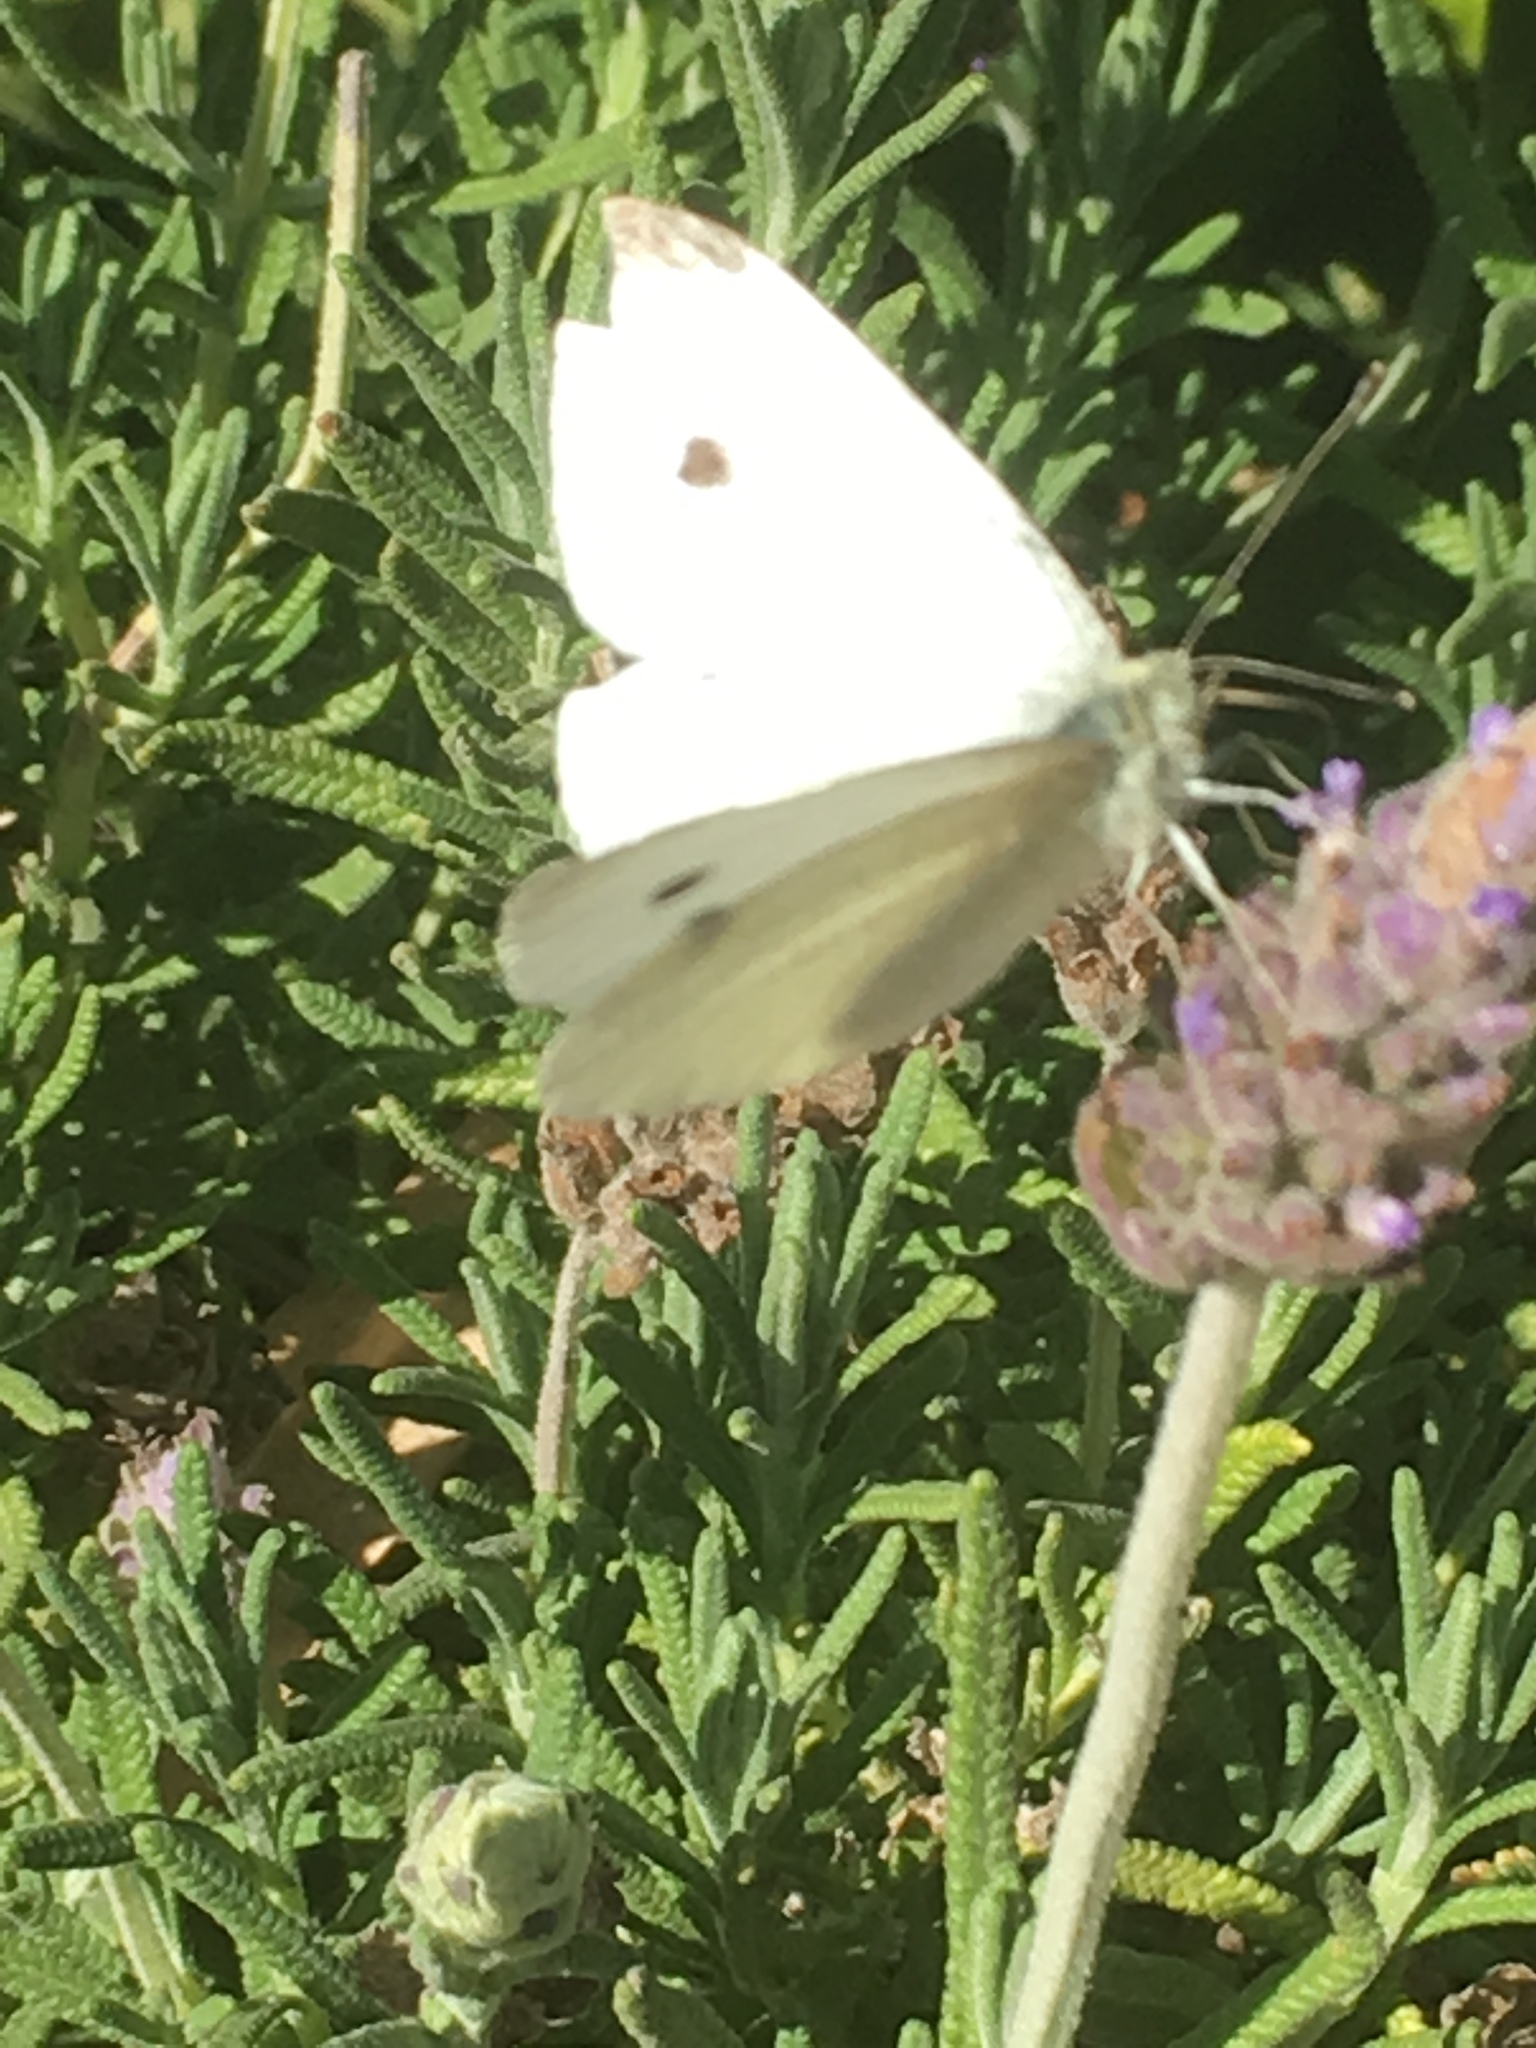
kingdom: Animalia
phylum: Arthropoda
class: Insecta
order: Lepidoptera
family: Pieridae
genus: Pieris
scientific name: Pieris rapae
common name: Small white
